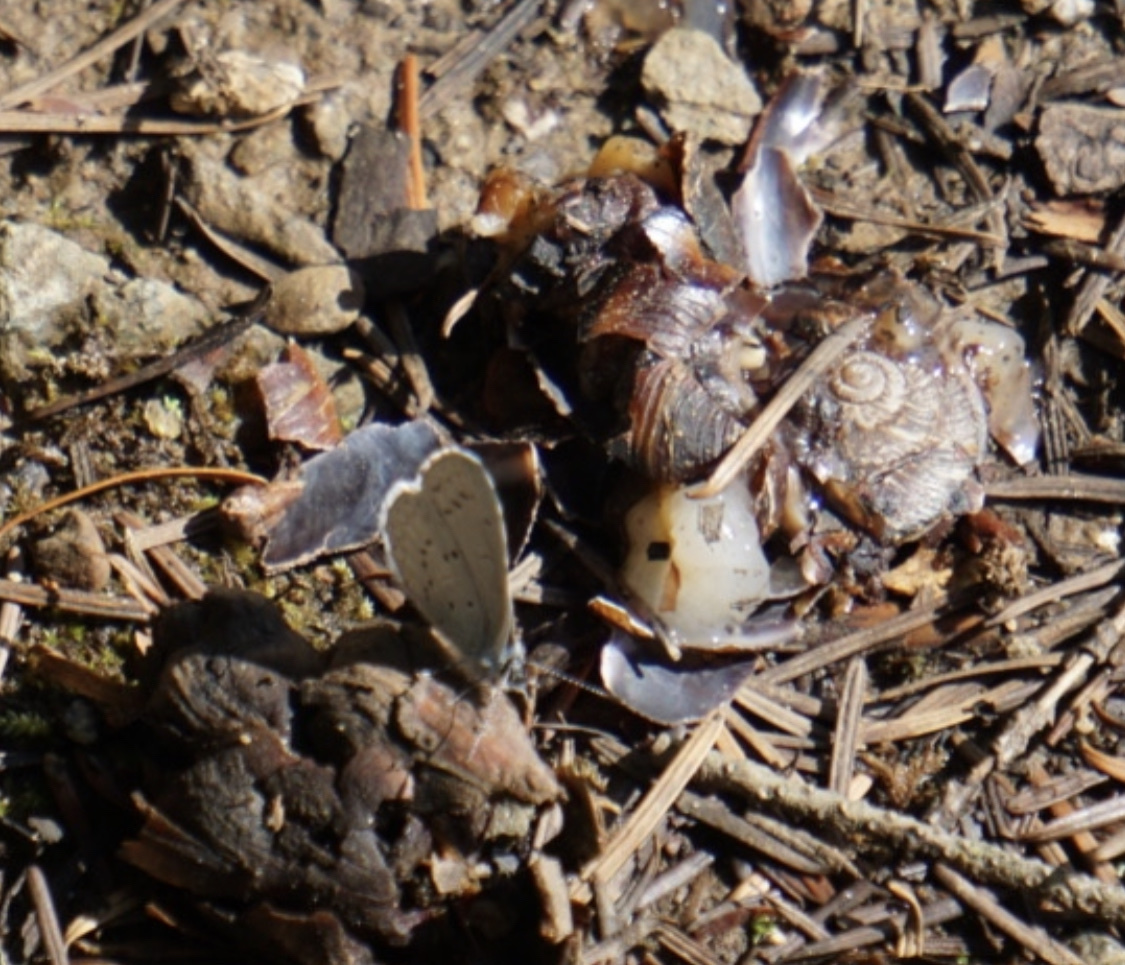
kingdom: Animalia
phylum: Arthropoda
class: Insecta
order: Lepidoptera
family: Lycaenidae
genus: Celastrina
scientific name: Celastrina ladon
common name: Spring azure
